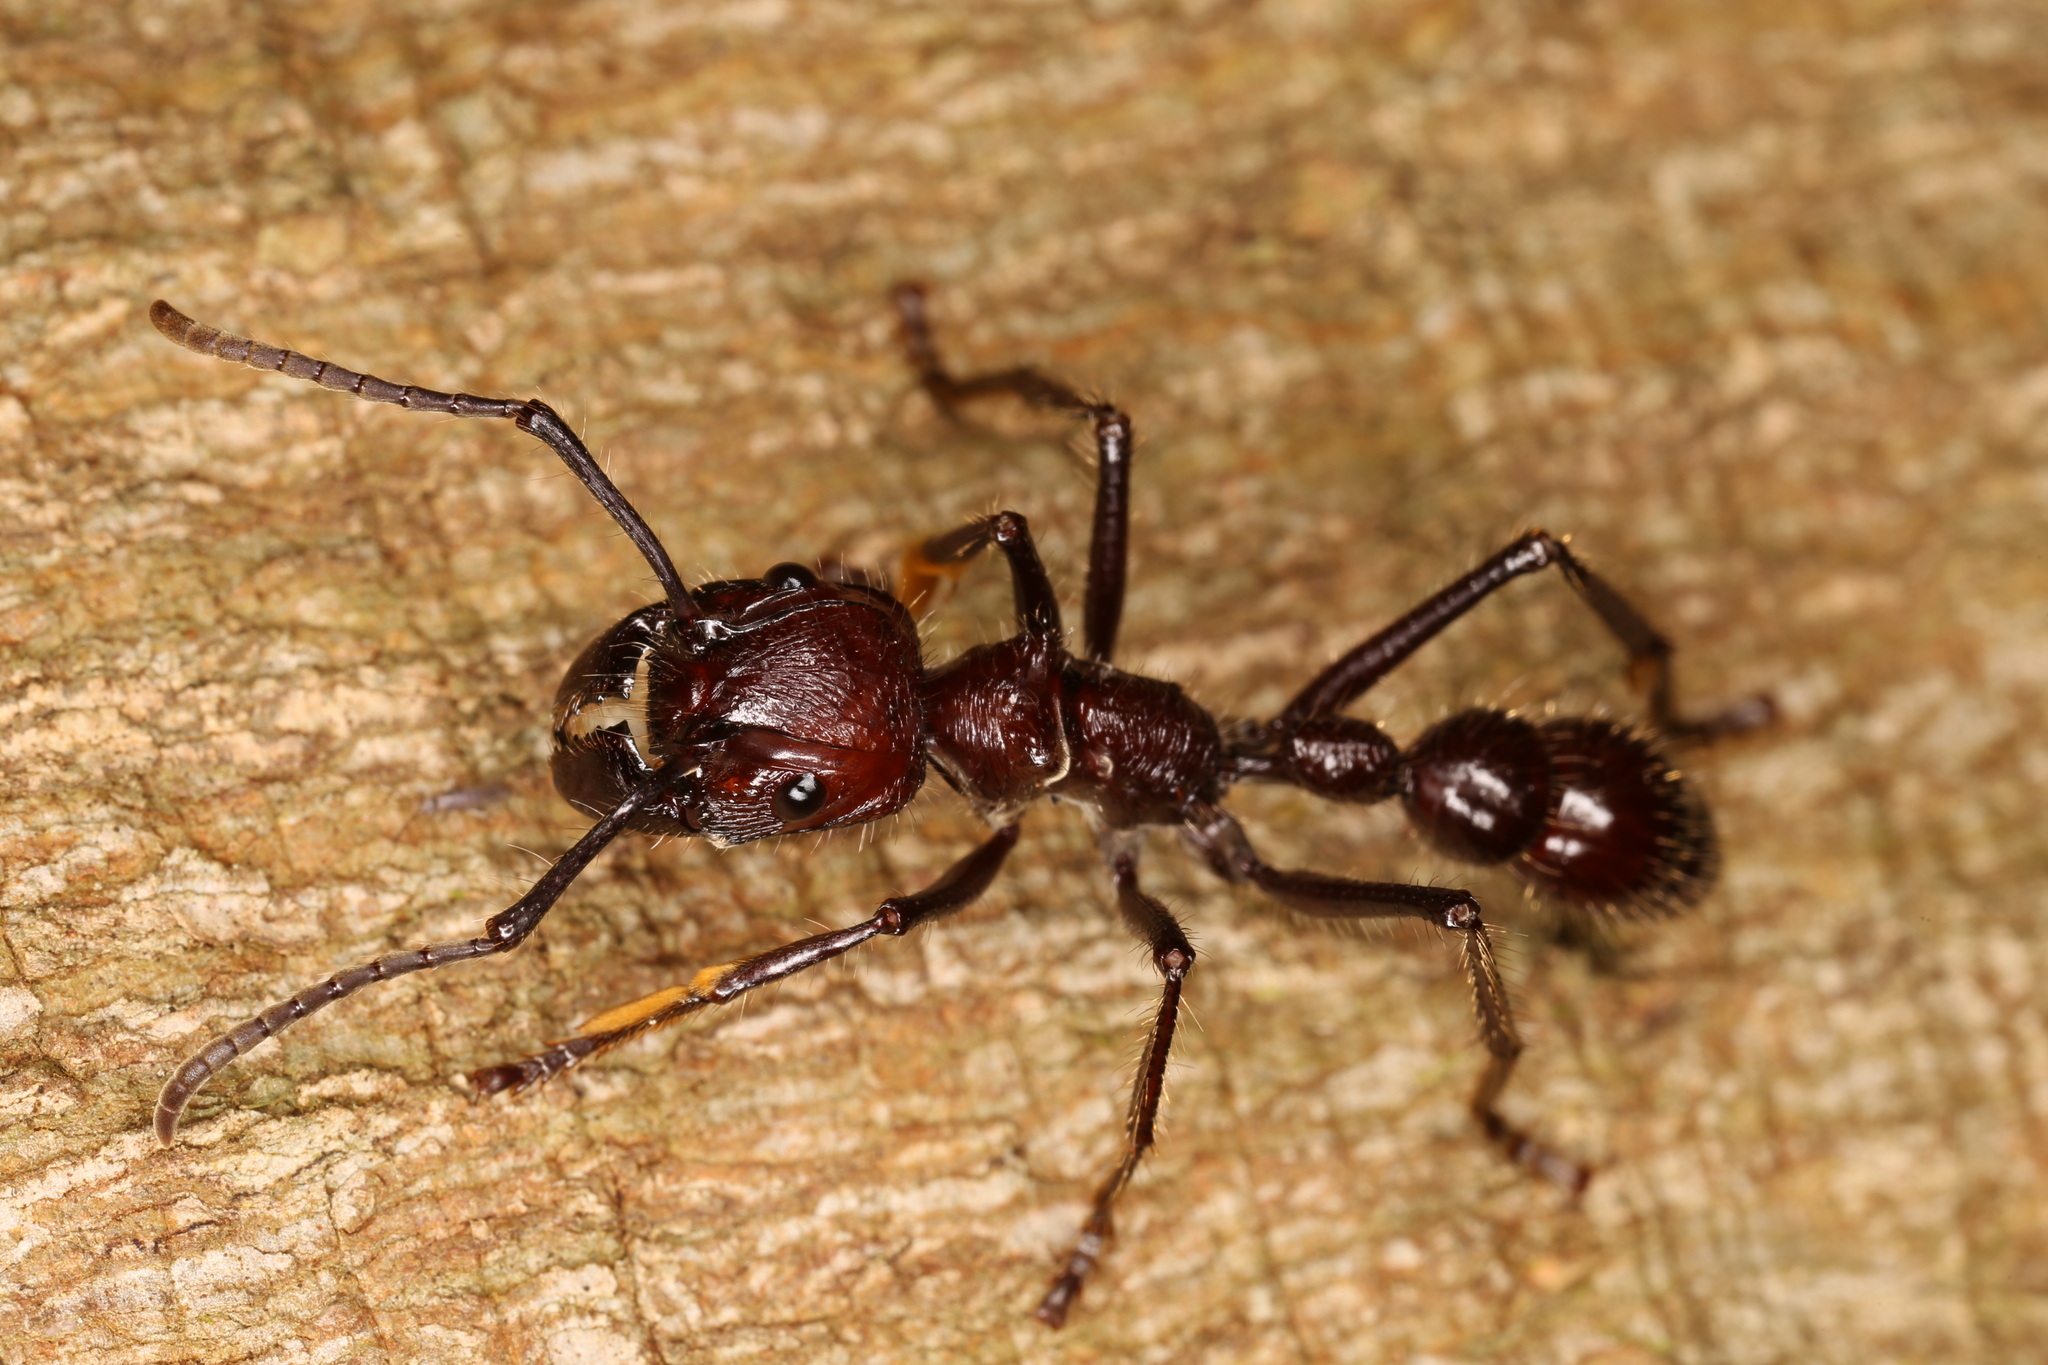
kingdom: Animalia
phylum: Arthropoda
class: Insecta
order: Hymenoptera
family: Formicidae
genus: Paraponera
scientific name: Paraponera clavata
